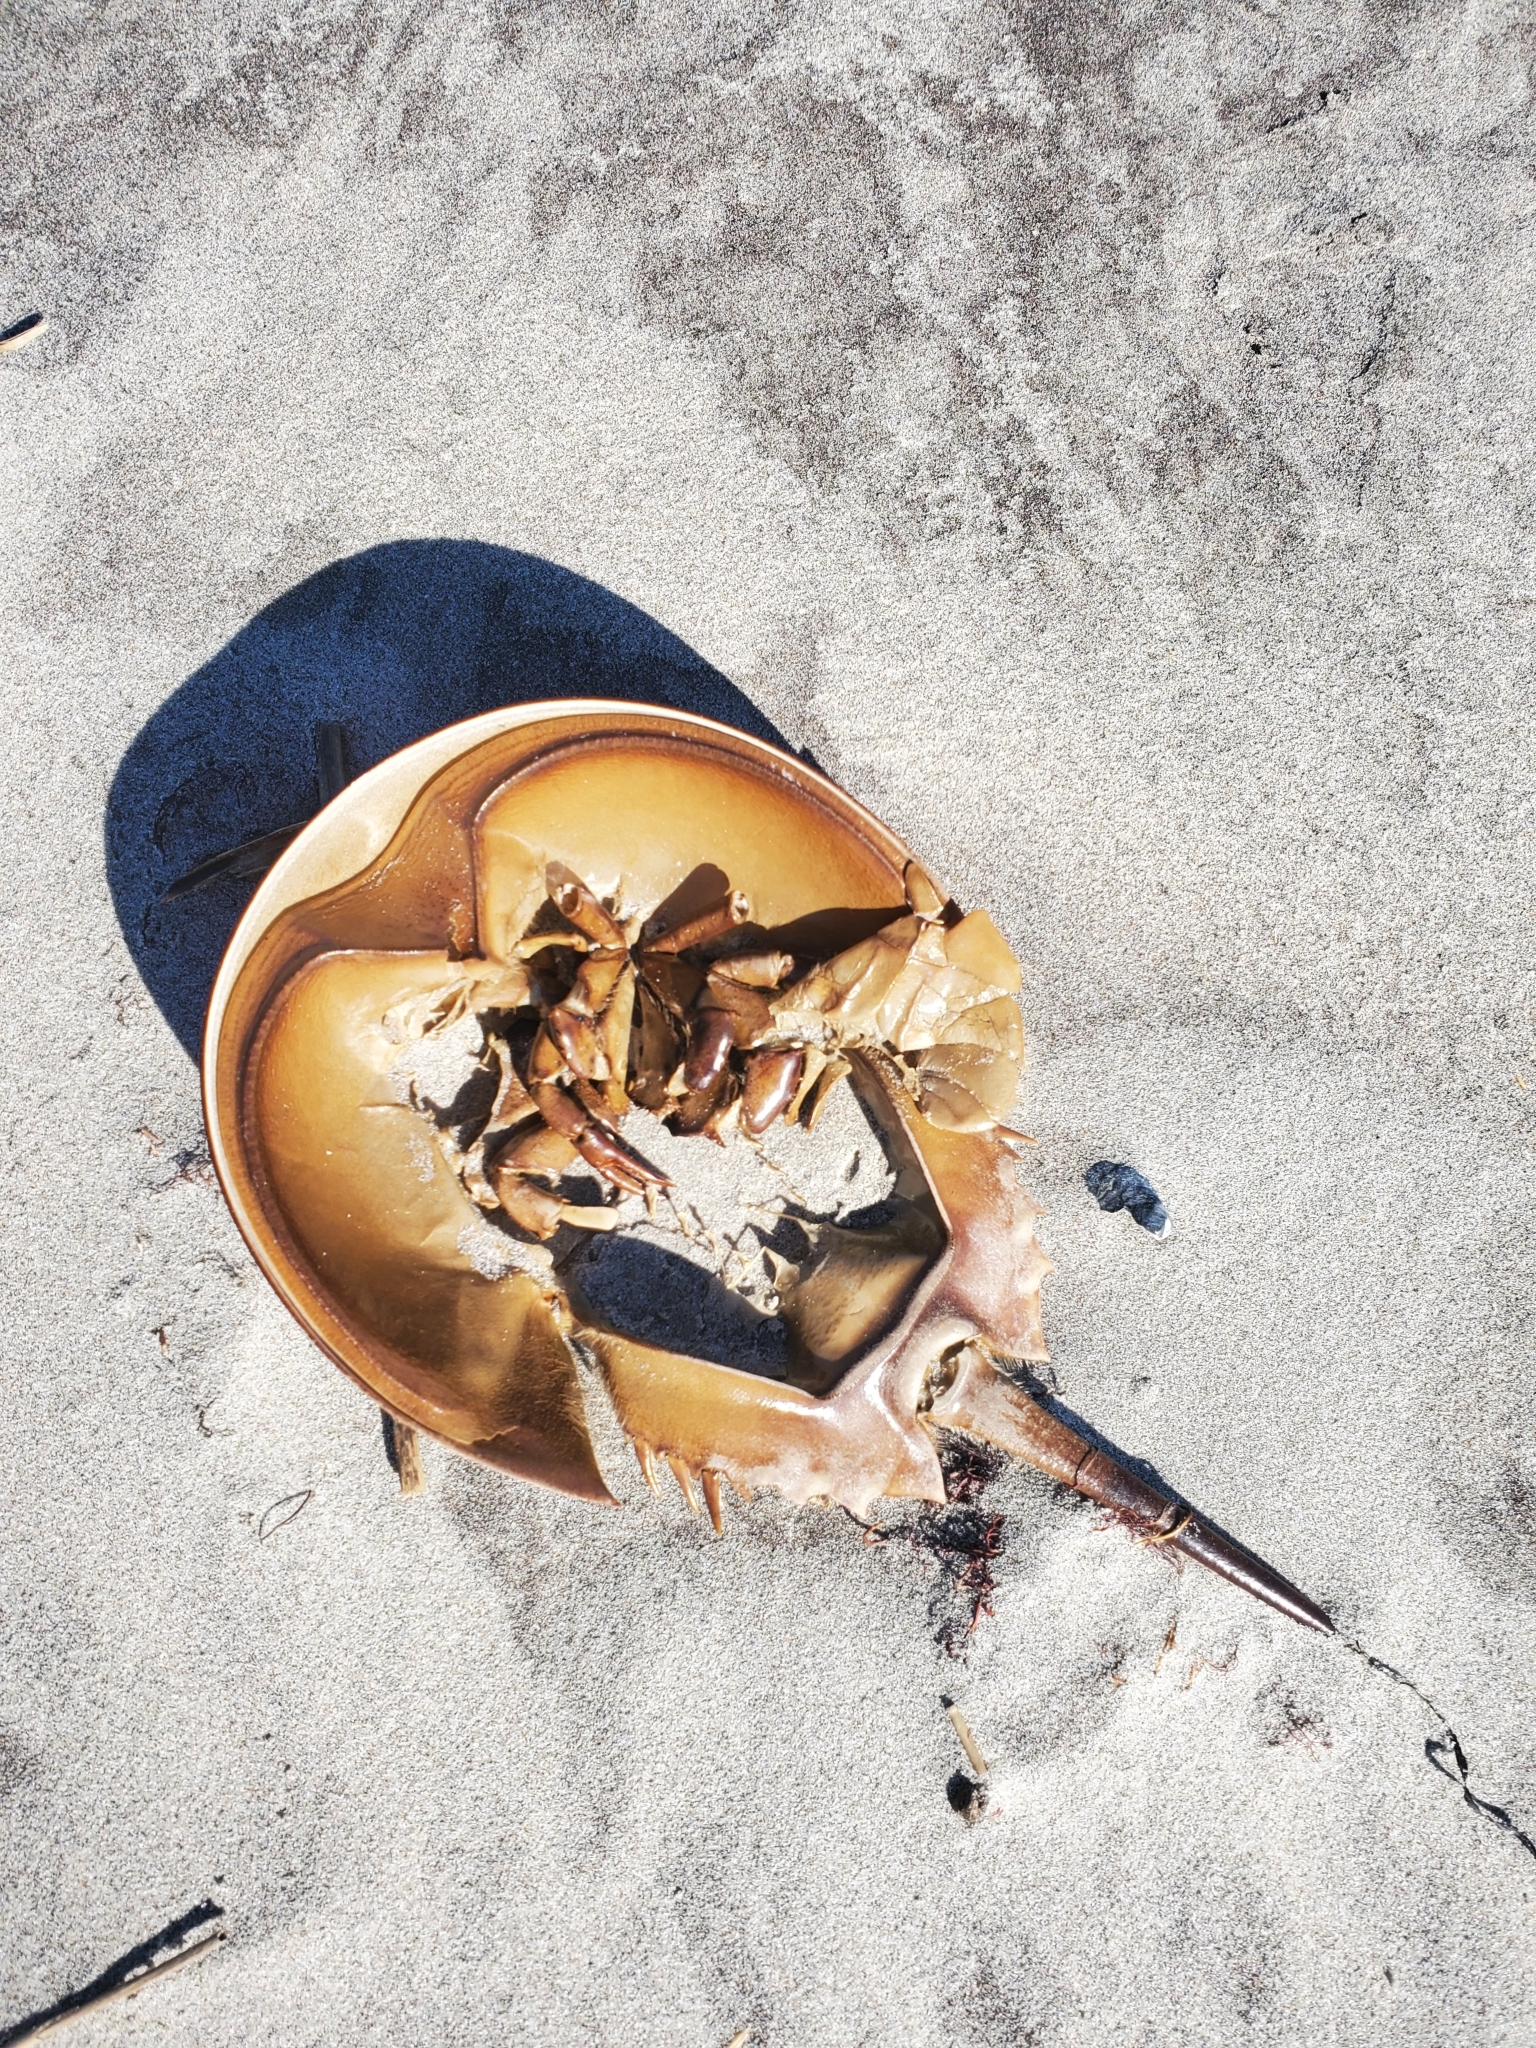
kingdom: Animalia
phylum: Arthropoda
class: Merostomata
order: Xiphosurida
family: Limulidae
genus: Limulus
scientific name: Limulus polyphemus
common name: Horseshoe crab
